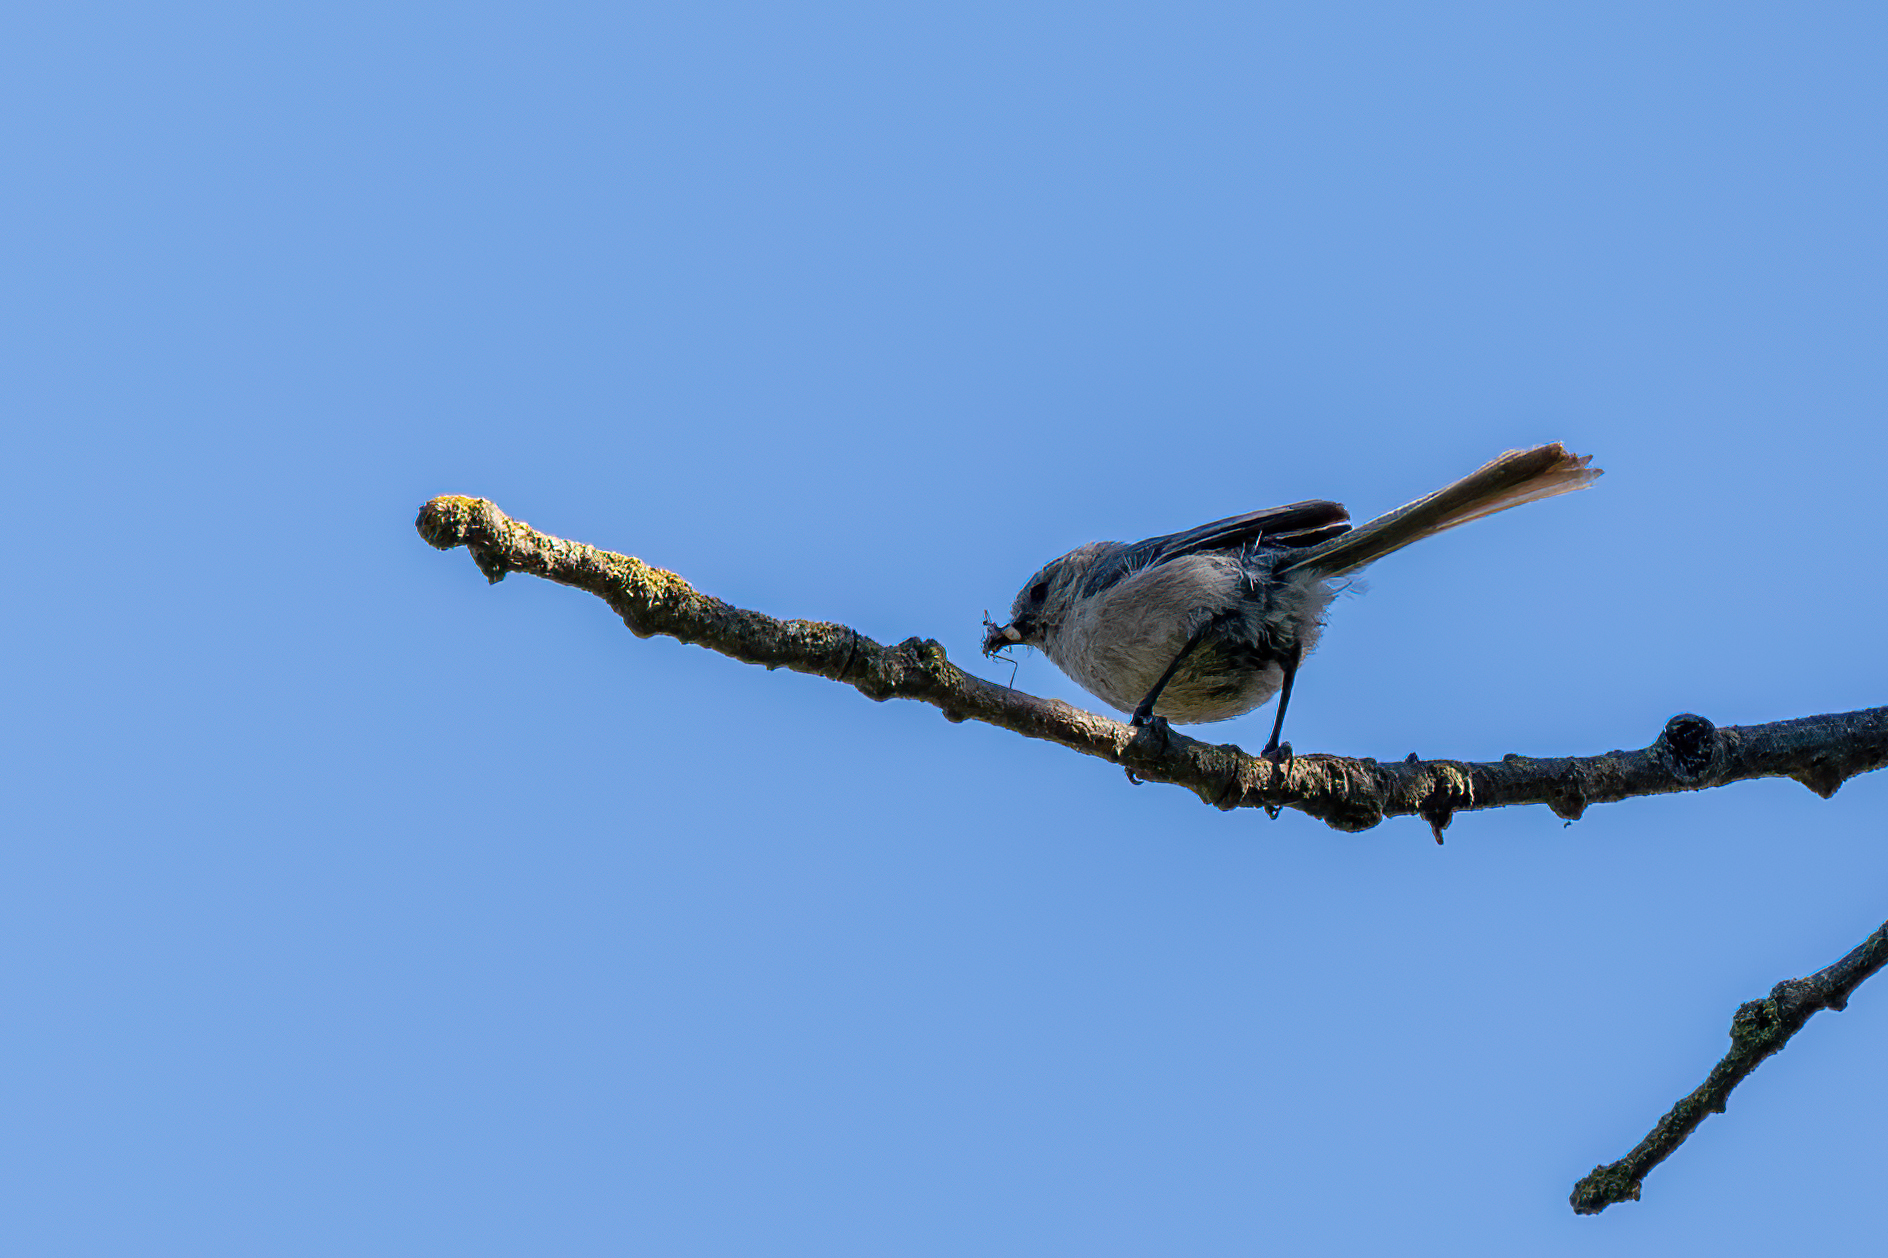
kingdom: Animalia
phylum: Chordata
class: Aves
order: Passeriformes
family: Aegithalidae
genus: Psaltriparus
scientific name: Psaltriparus minimus
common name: American bushtit
